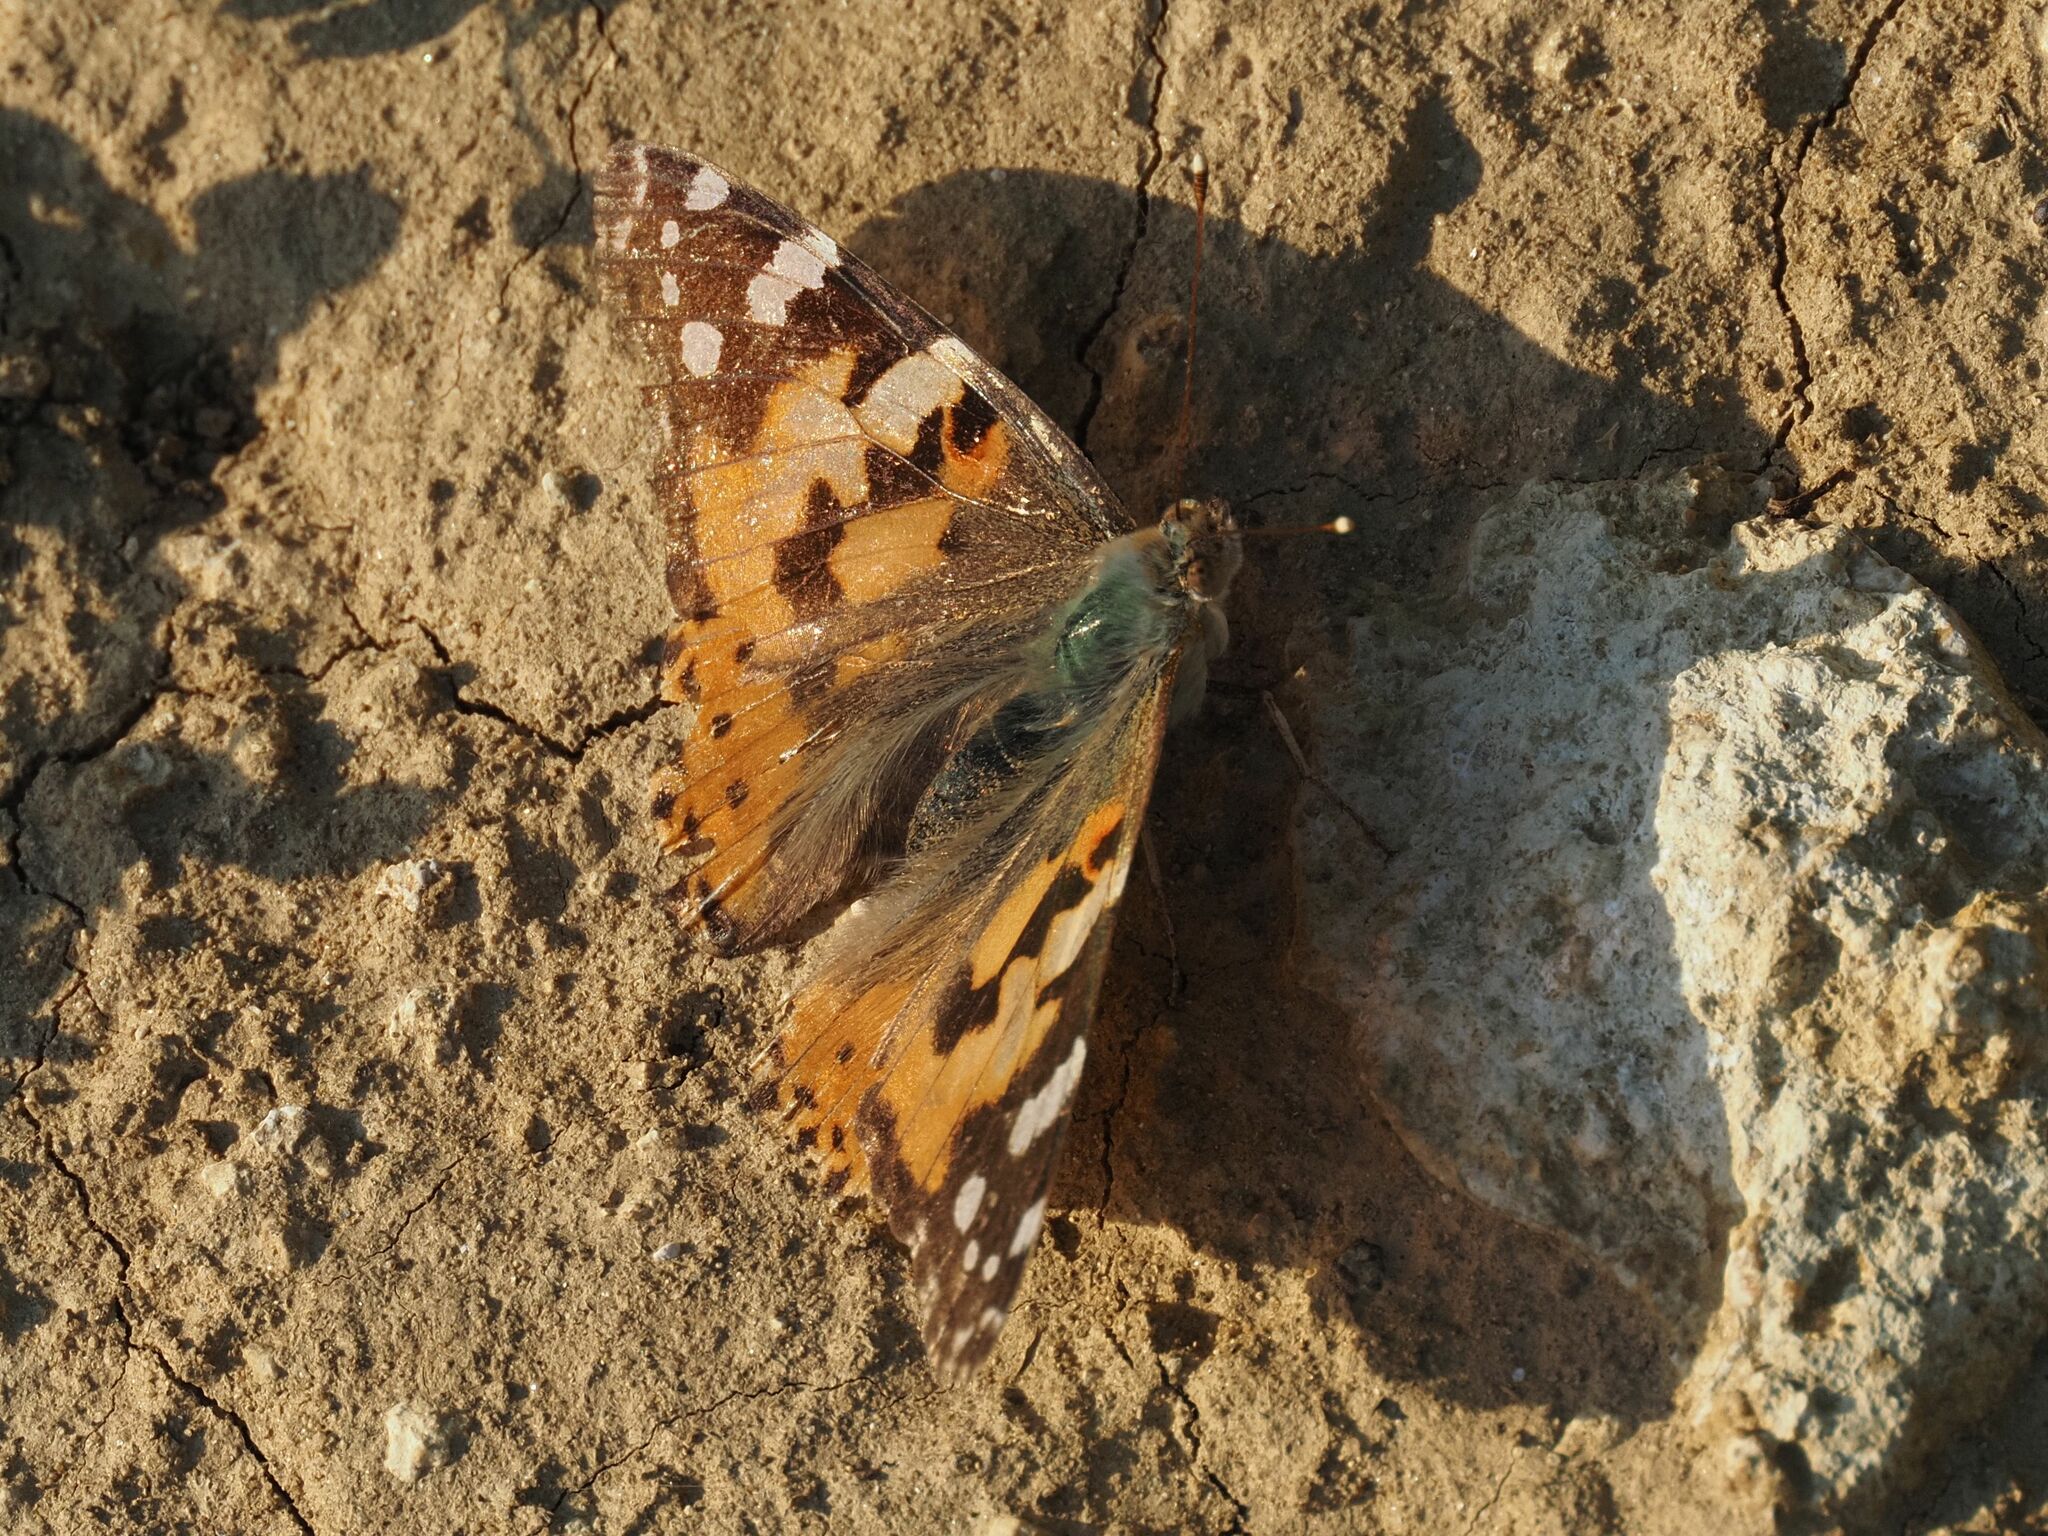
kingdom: Animalia
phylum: Arthropoda
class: Insecta
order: Lepidoptera
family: Nymphalidae
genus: Vanessa
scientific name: Vanessa cardui
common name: Painted lady
